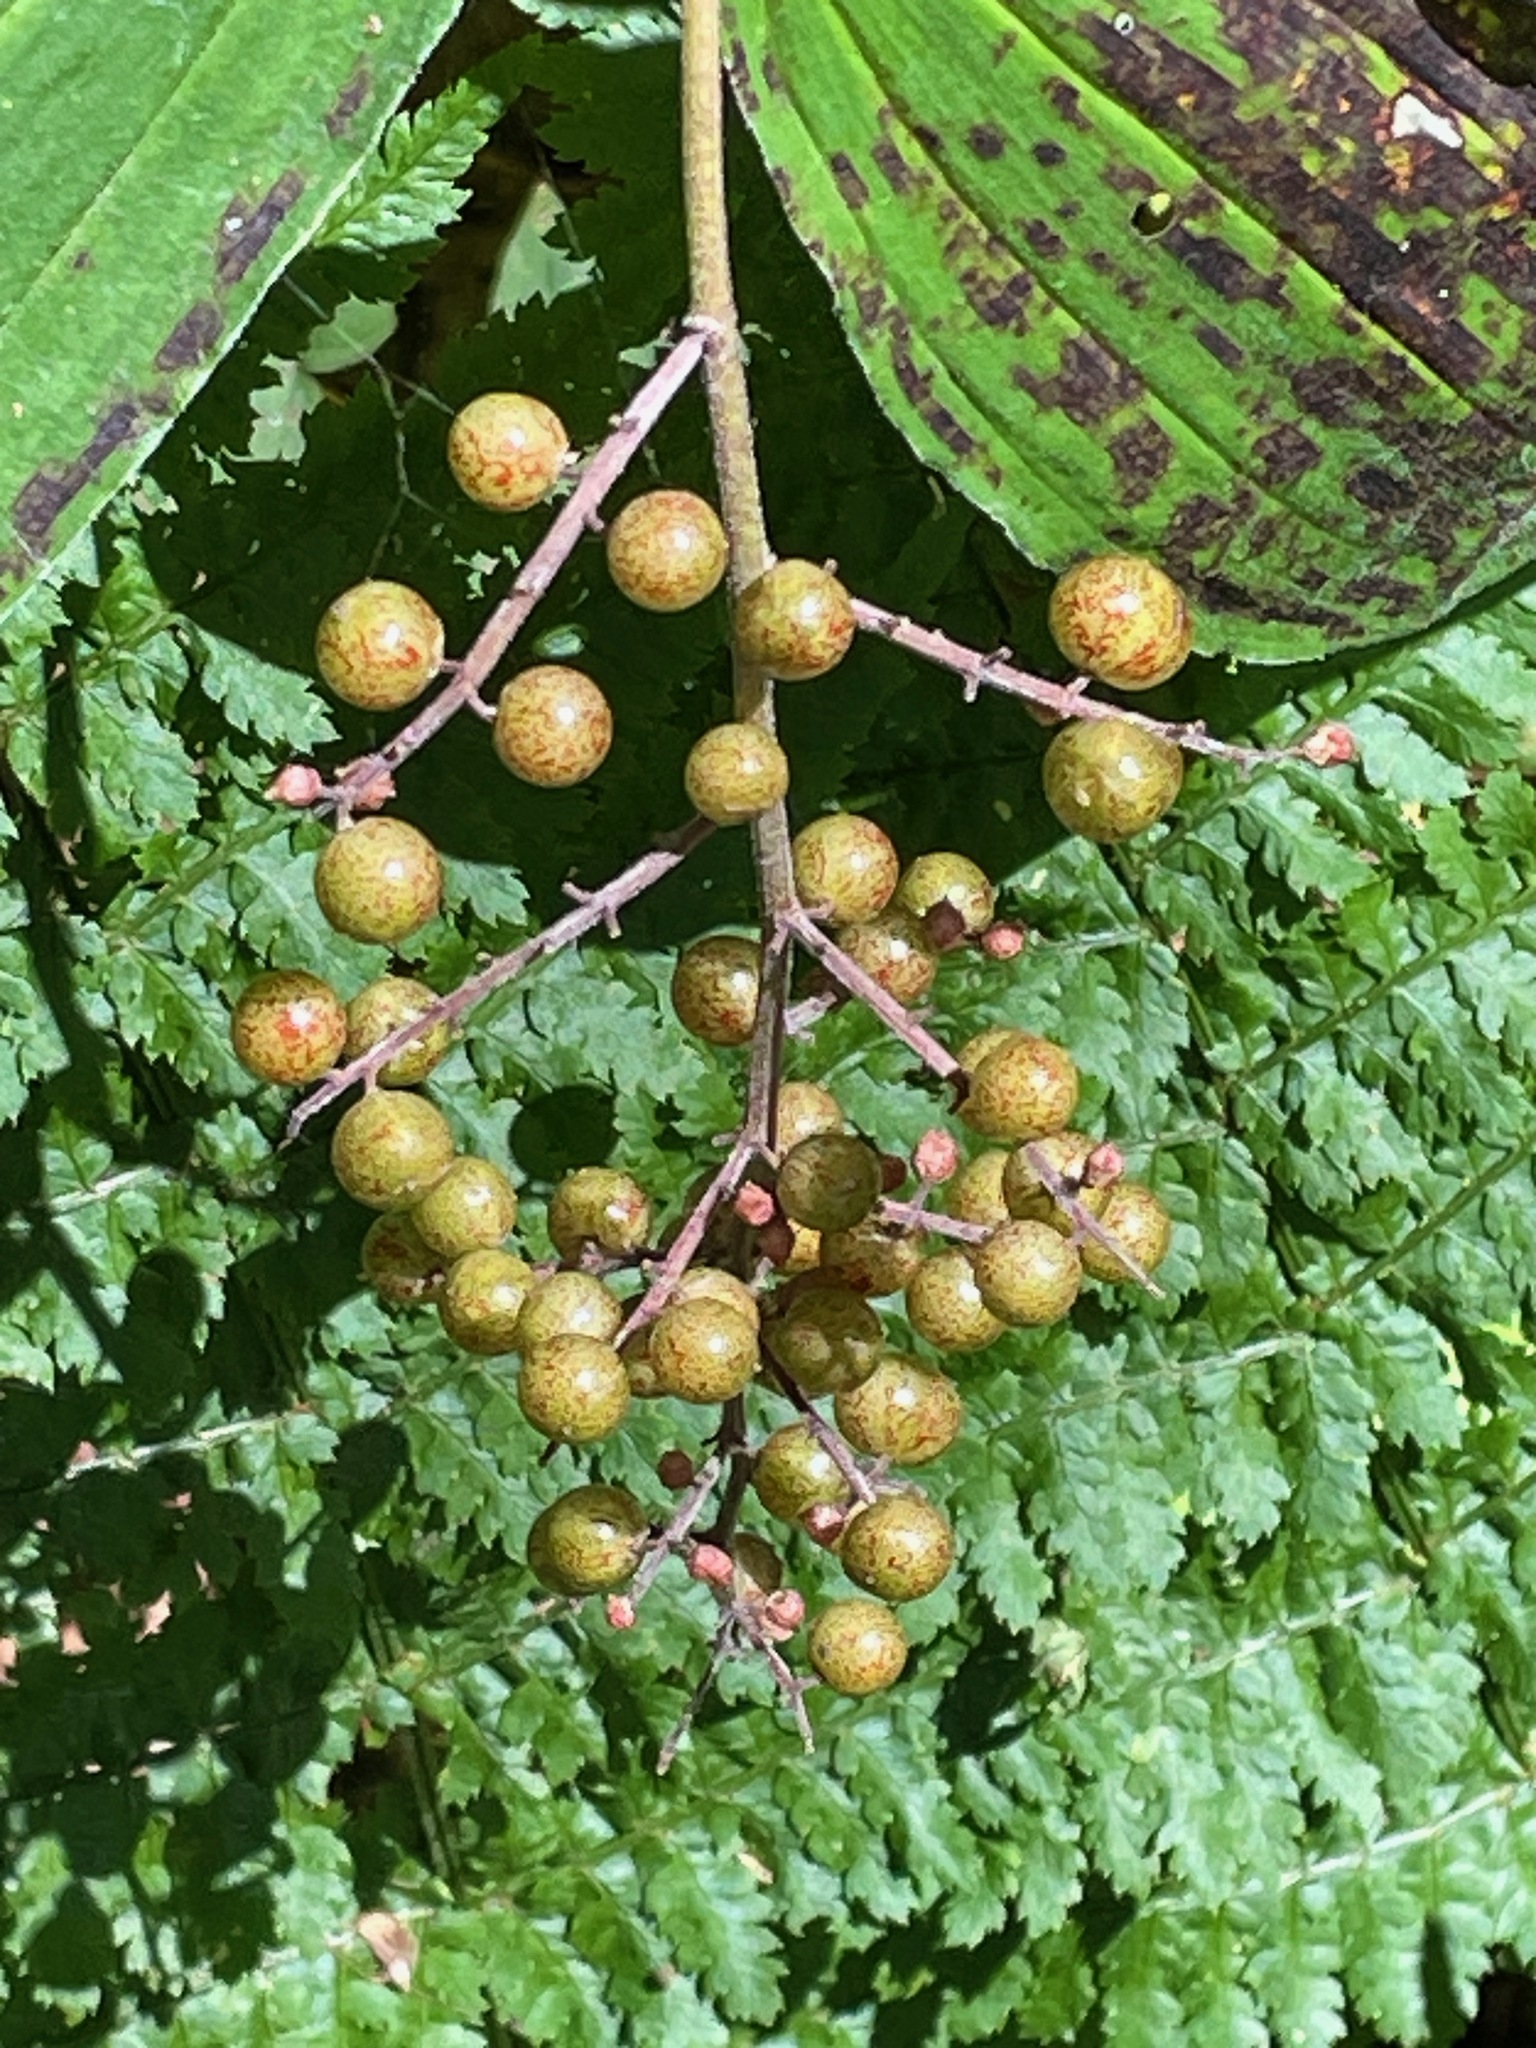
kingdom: Plantae
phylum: Tracheophyta
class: Liliopsida
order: Asparagales
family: Asparagaceae
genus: Maianthemum
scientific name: Maianthemum racemosum
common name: False spikenard
